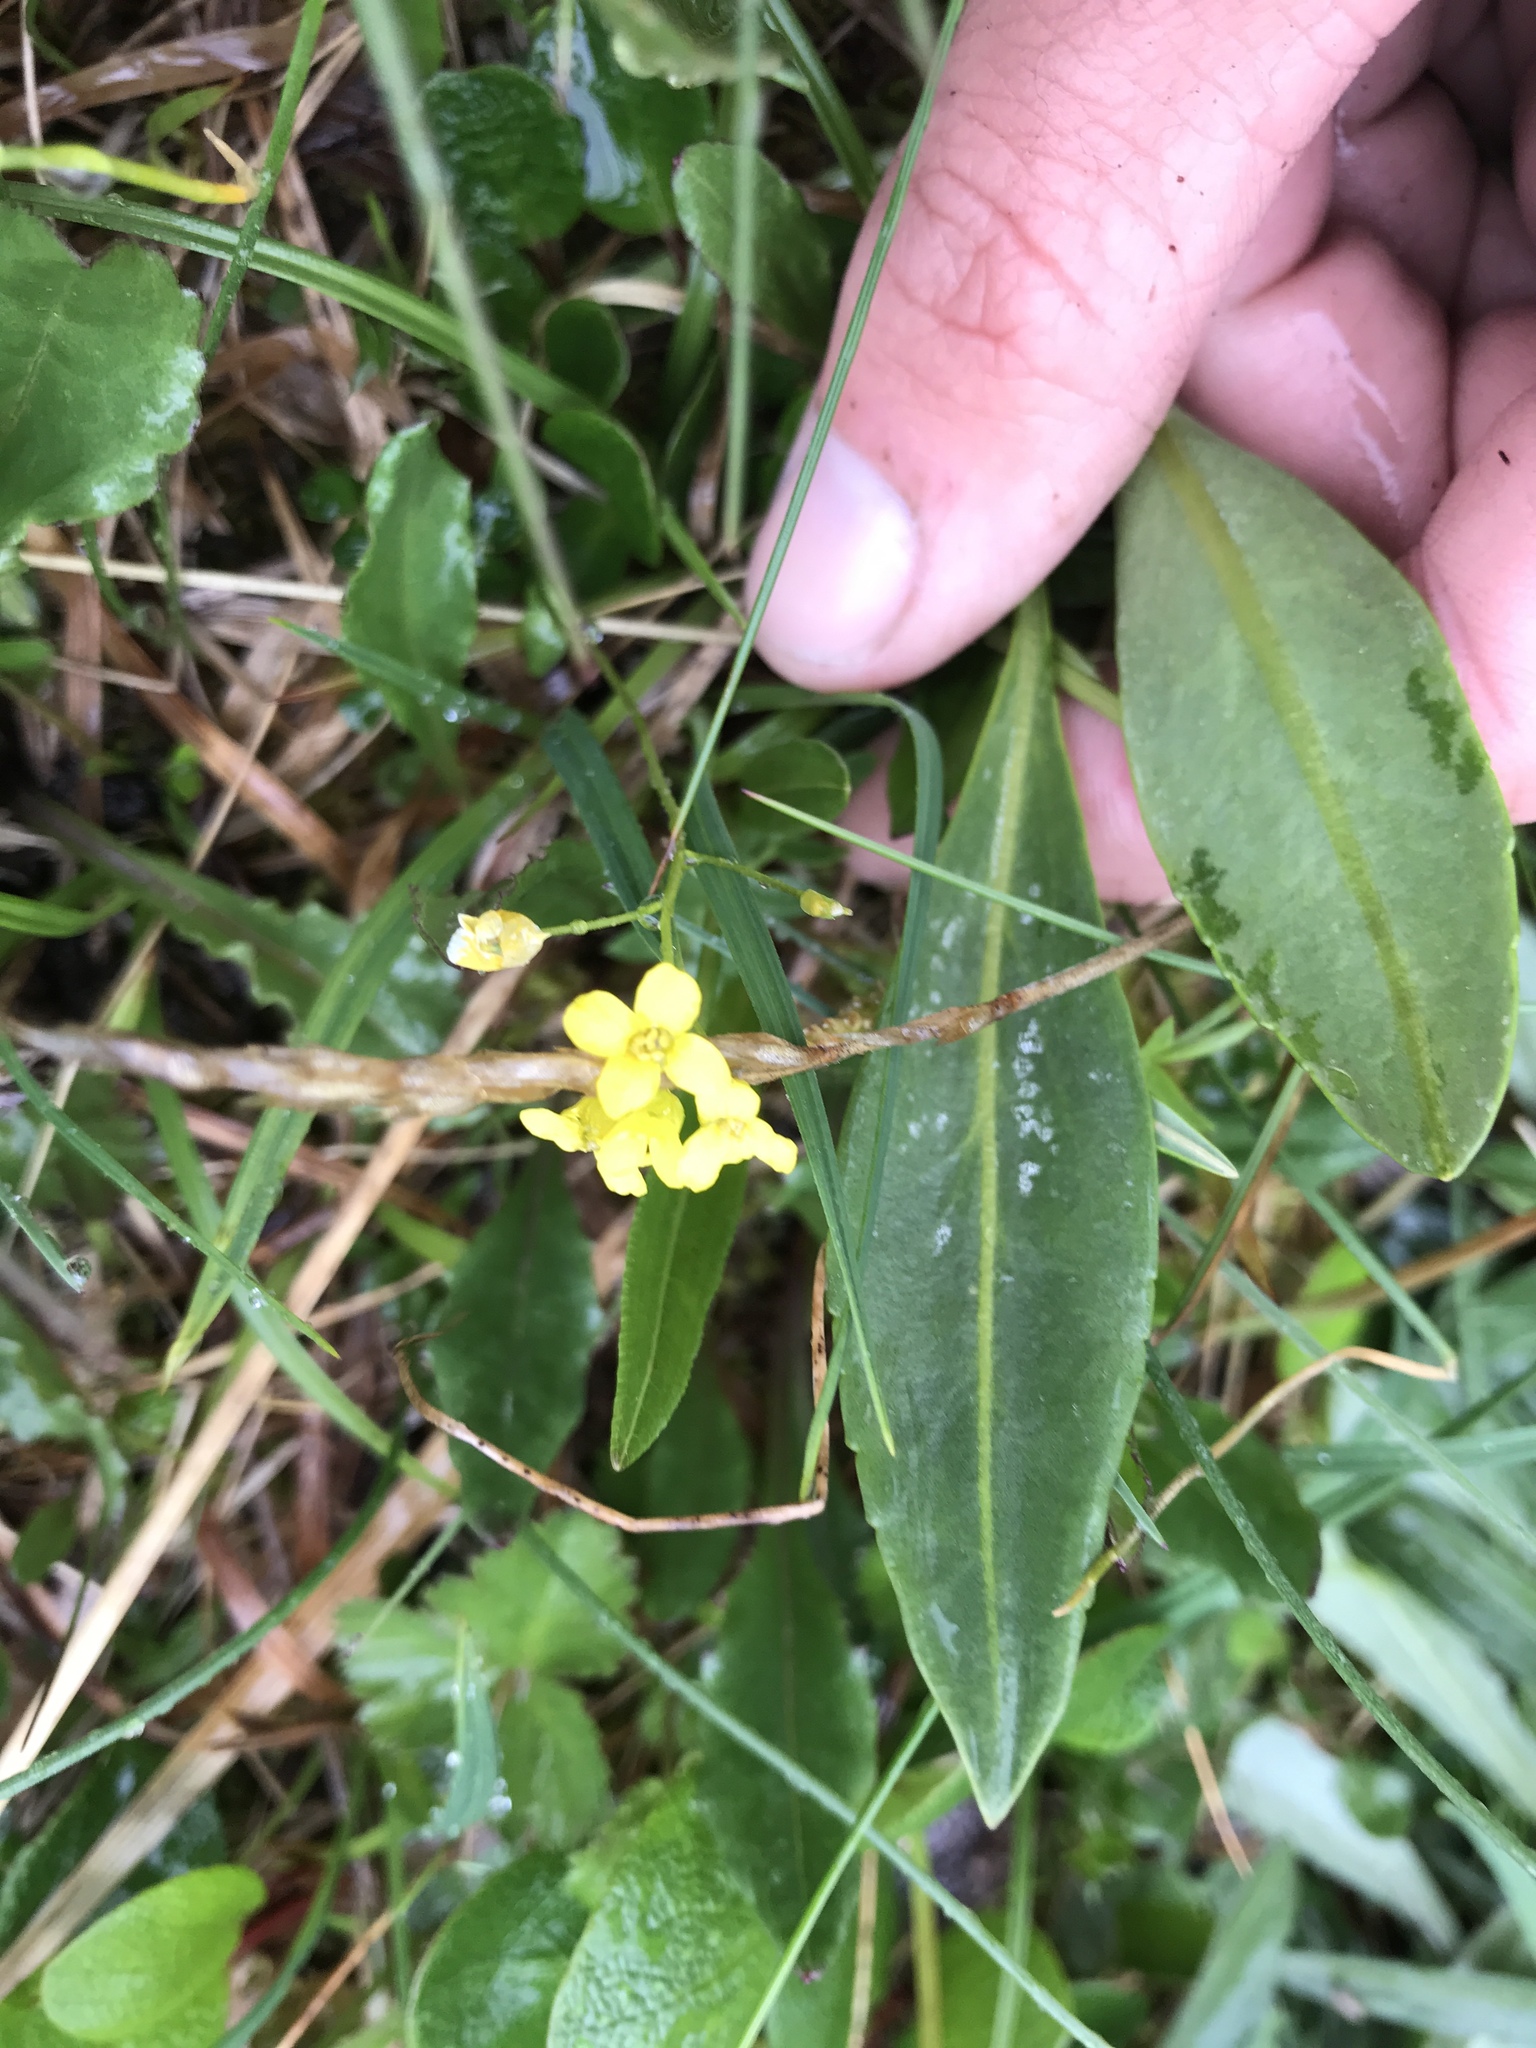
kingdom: Plantae
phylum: Tracheophyta
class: Magnoliopsida
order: Brassicales
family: Brassicaceae
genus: Draba
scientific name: Draba ogilviensis
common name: Ogilvie mountains draba
